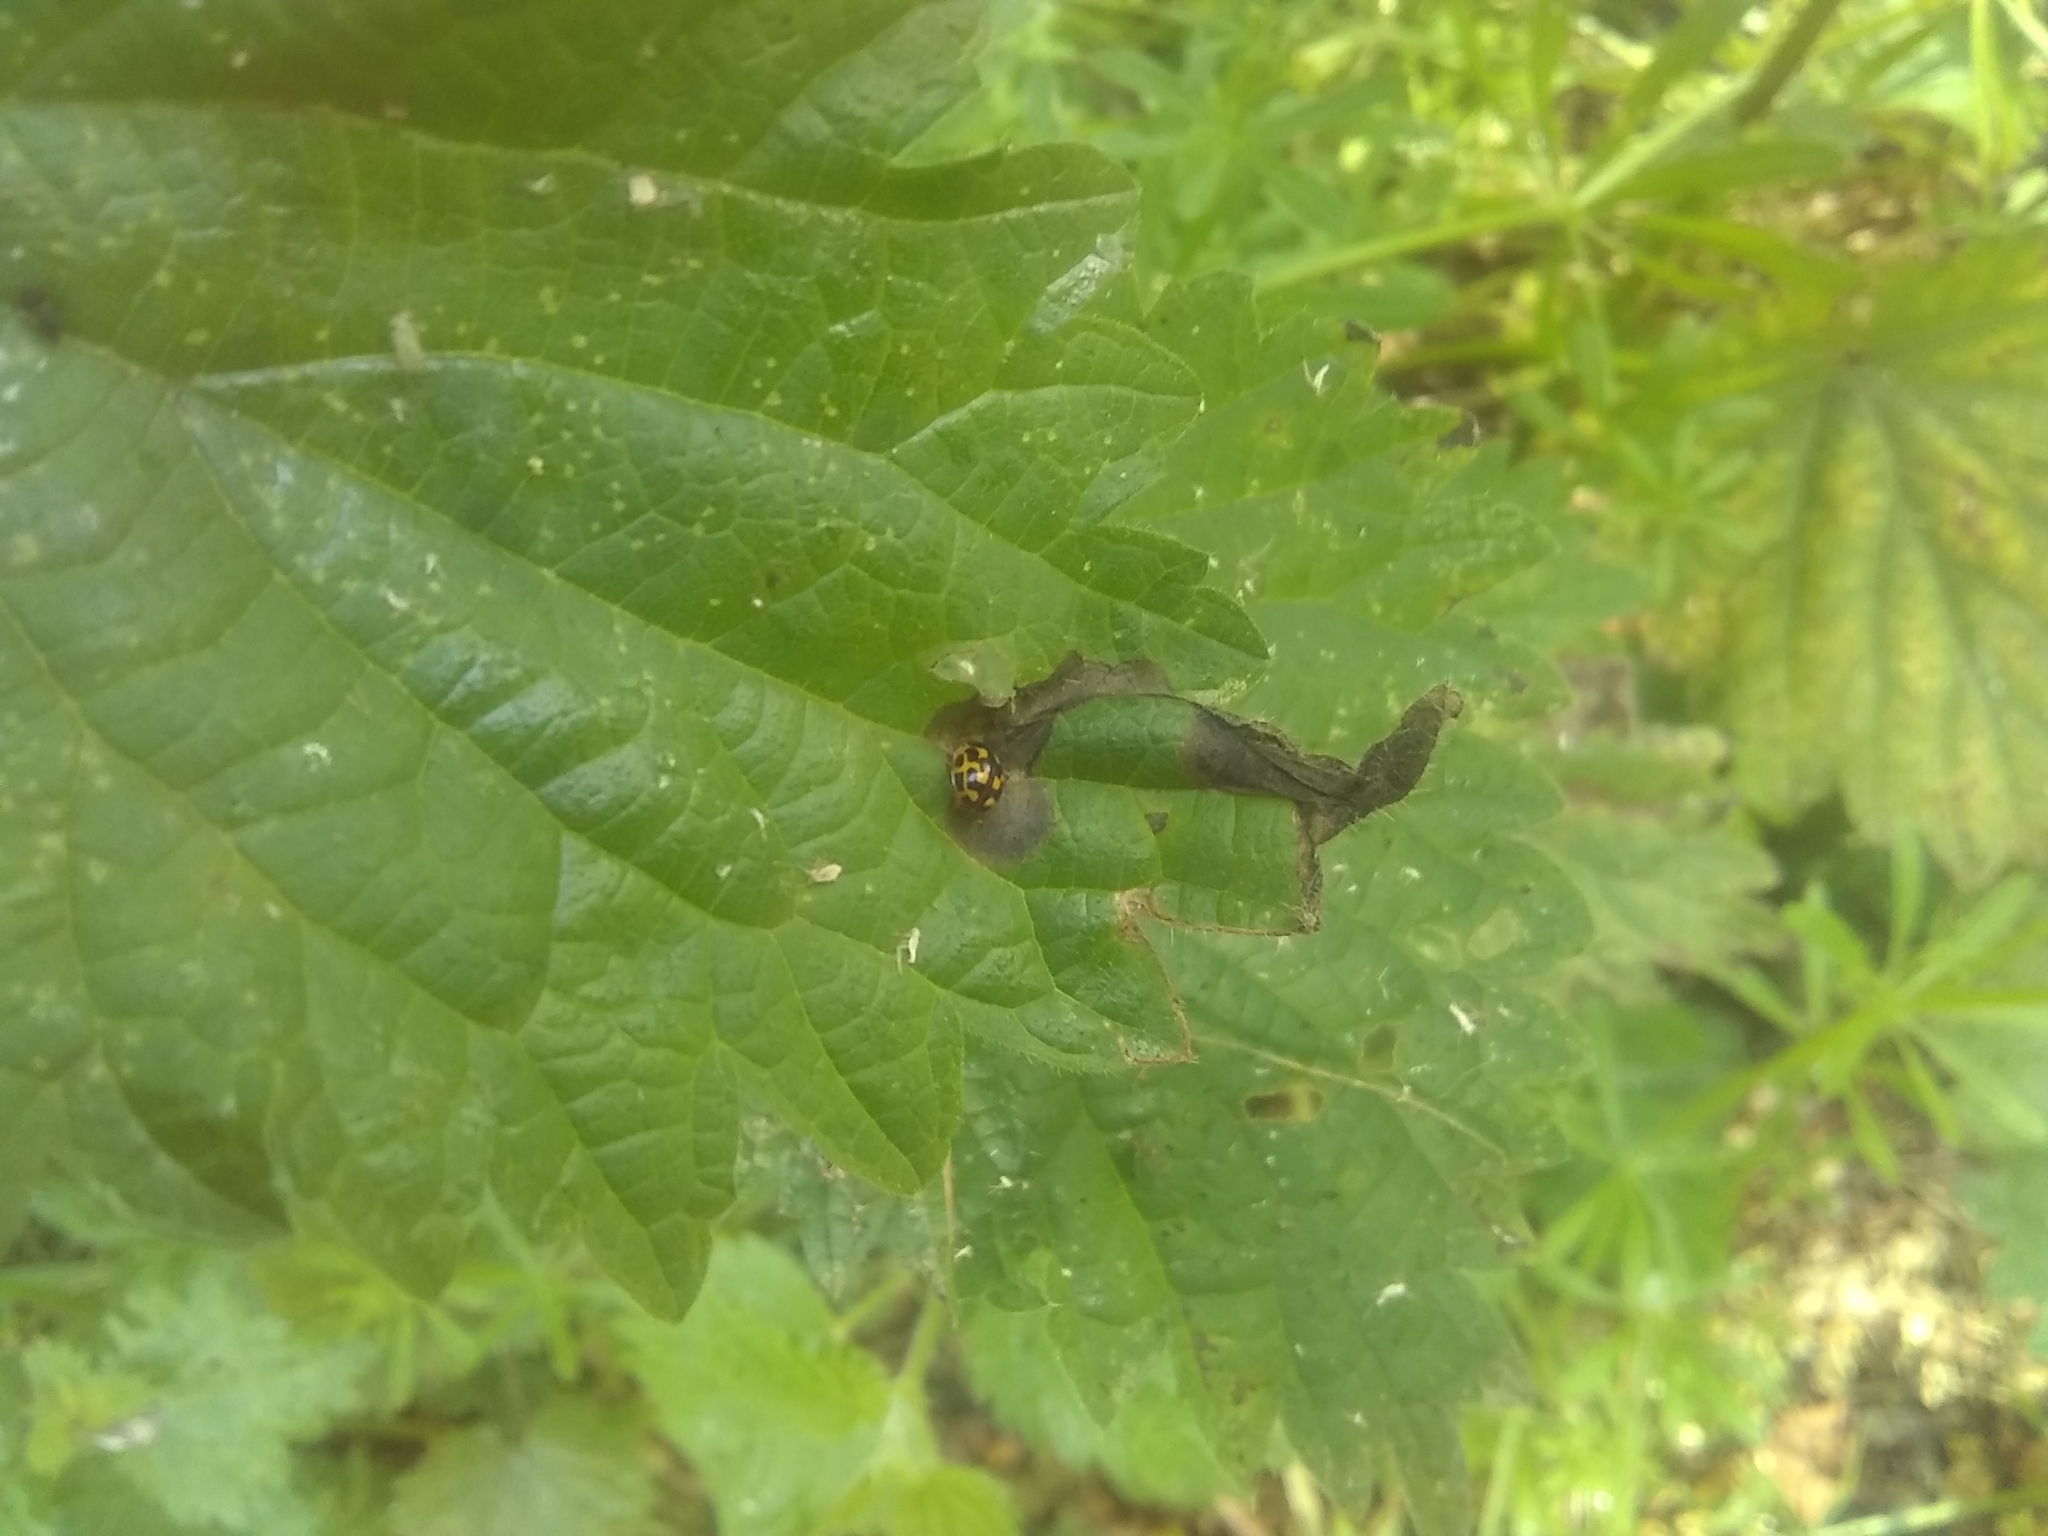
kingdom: Animalia
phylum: Arthropoda
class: Insecta
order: Coleoptera
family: Coccinellidae
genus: Propylaea
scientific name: Propylaea quatuordecimpunctata
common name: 14-spotted ladybird beetle
